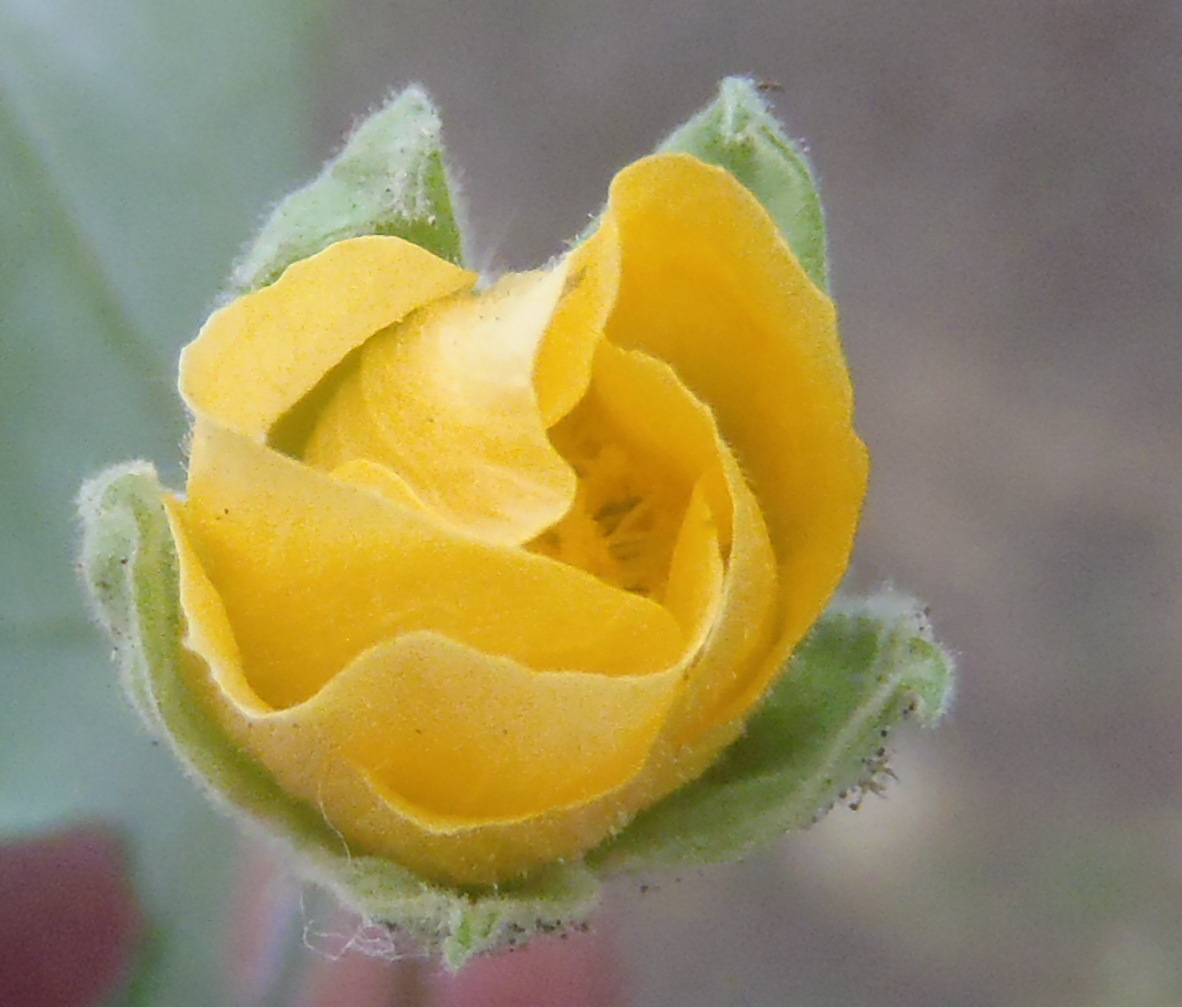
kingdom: Plantae
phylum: Tracheophyta
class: Magnoliopsida
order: Malvales
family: Malvaceae
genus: Abutilon
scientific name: Abutilon sonneratianum
